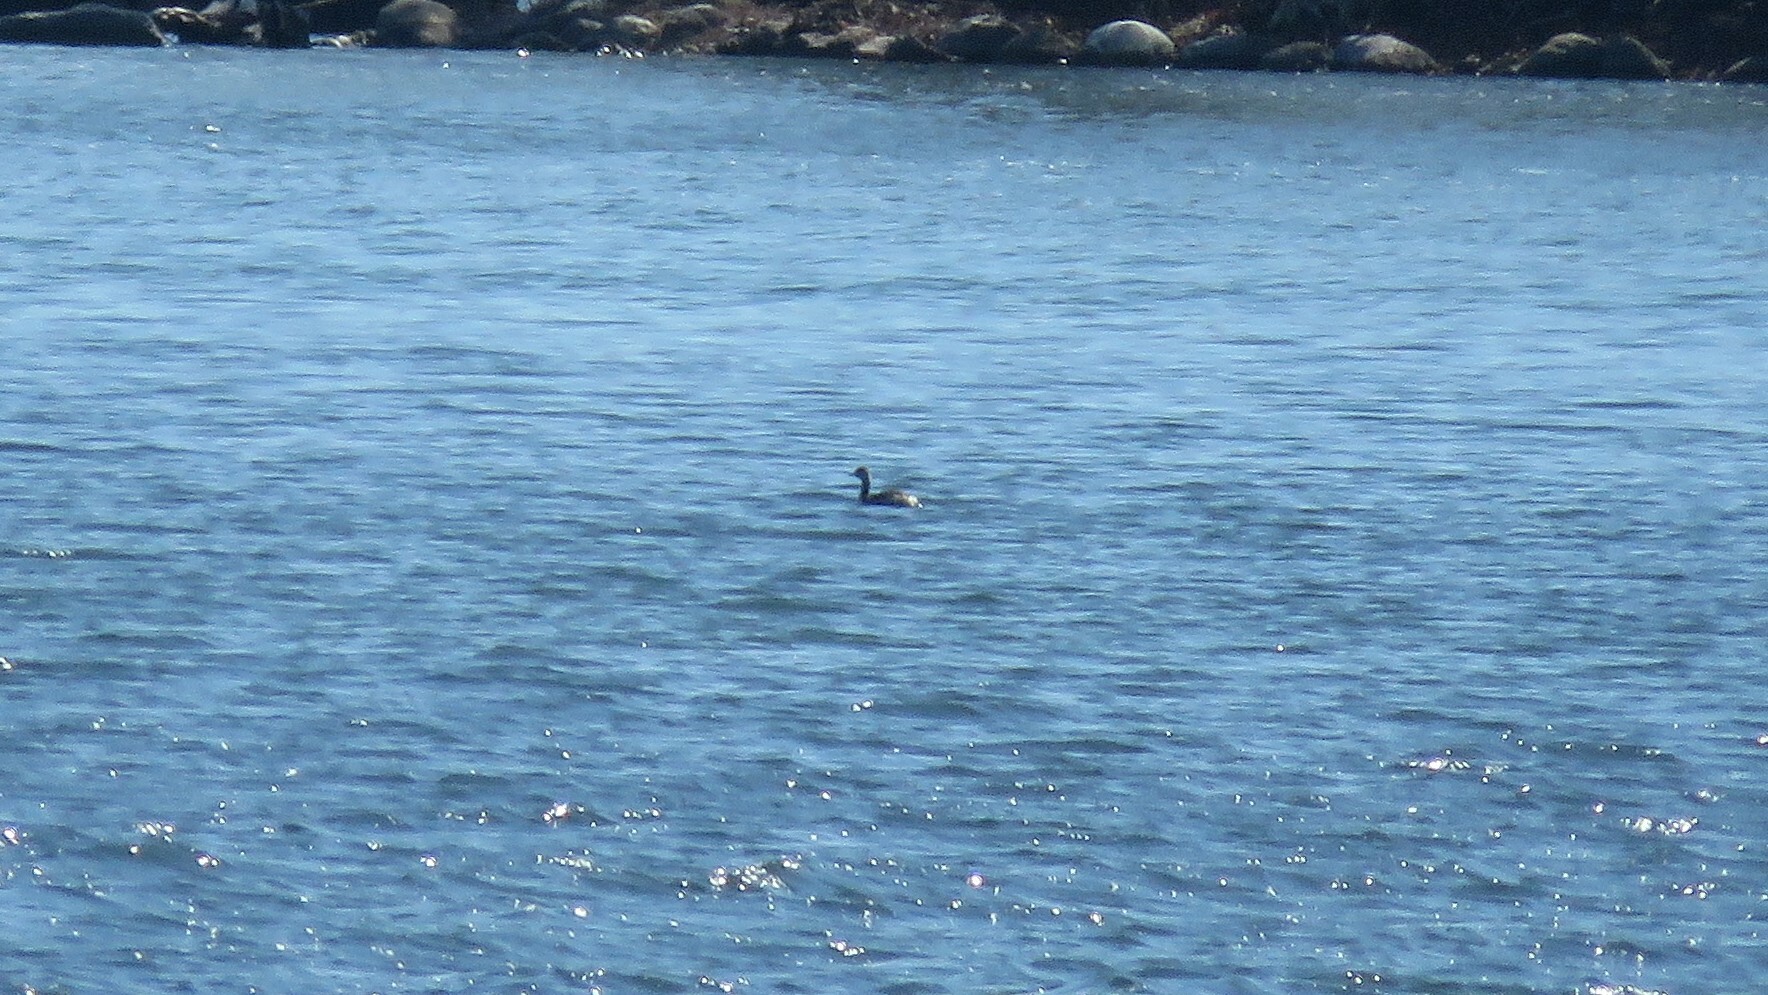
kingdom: Animalia
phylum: Chordata
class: Aves
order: Podicipediformes
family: Podicipedidae
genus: Podiceps
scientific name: Podiceps auritus
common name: Horned grebe
